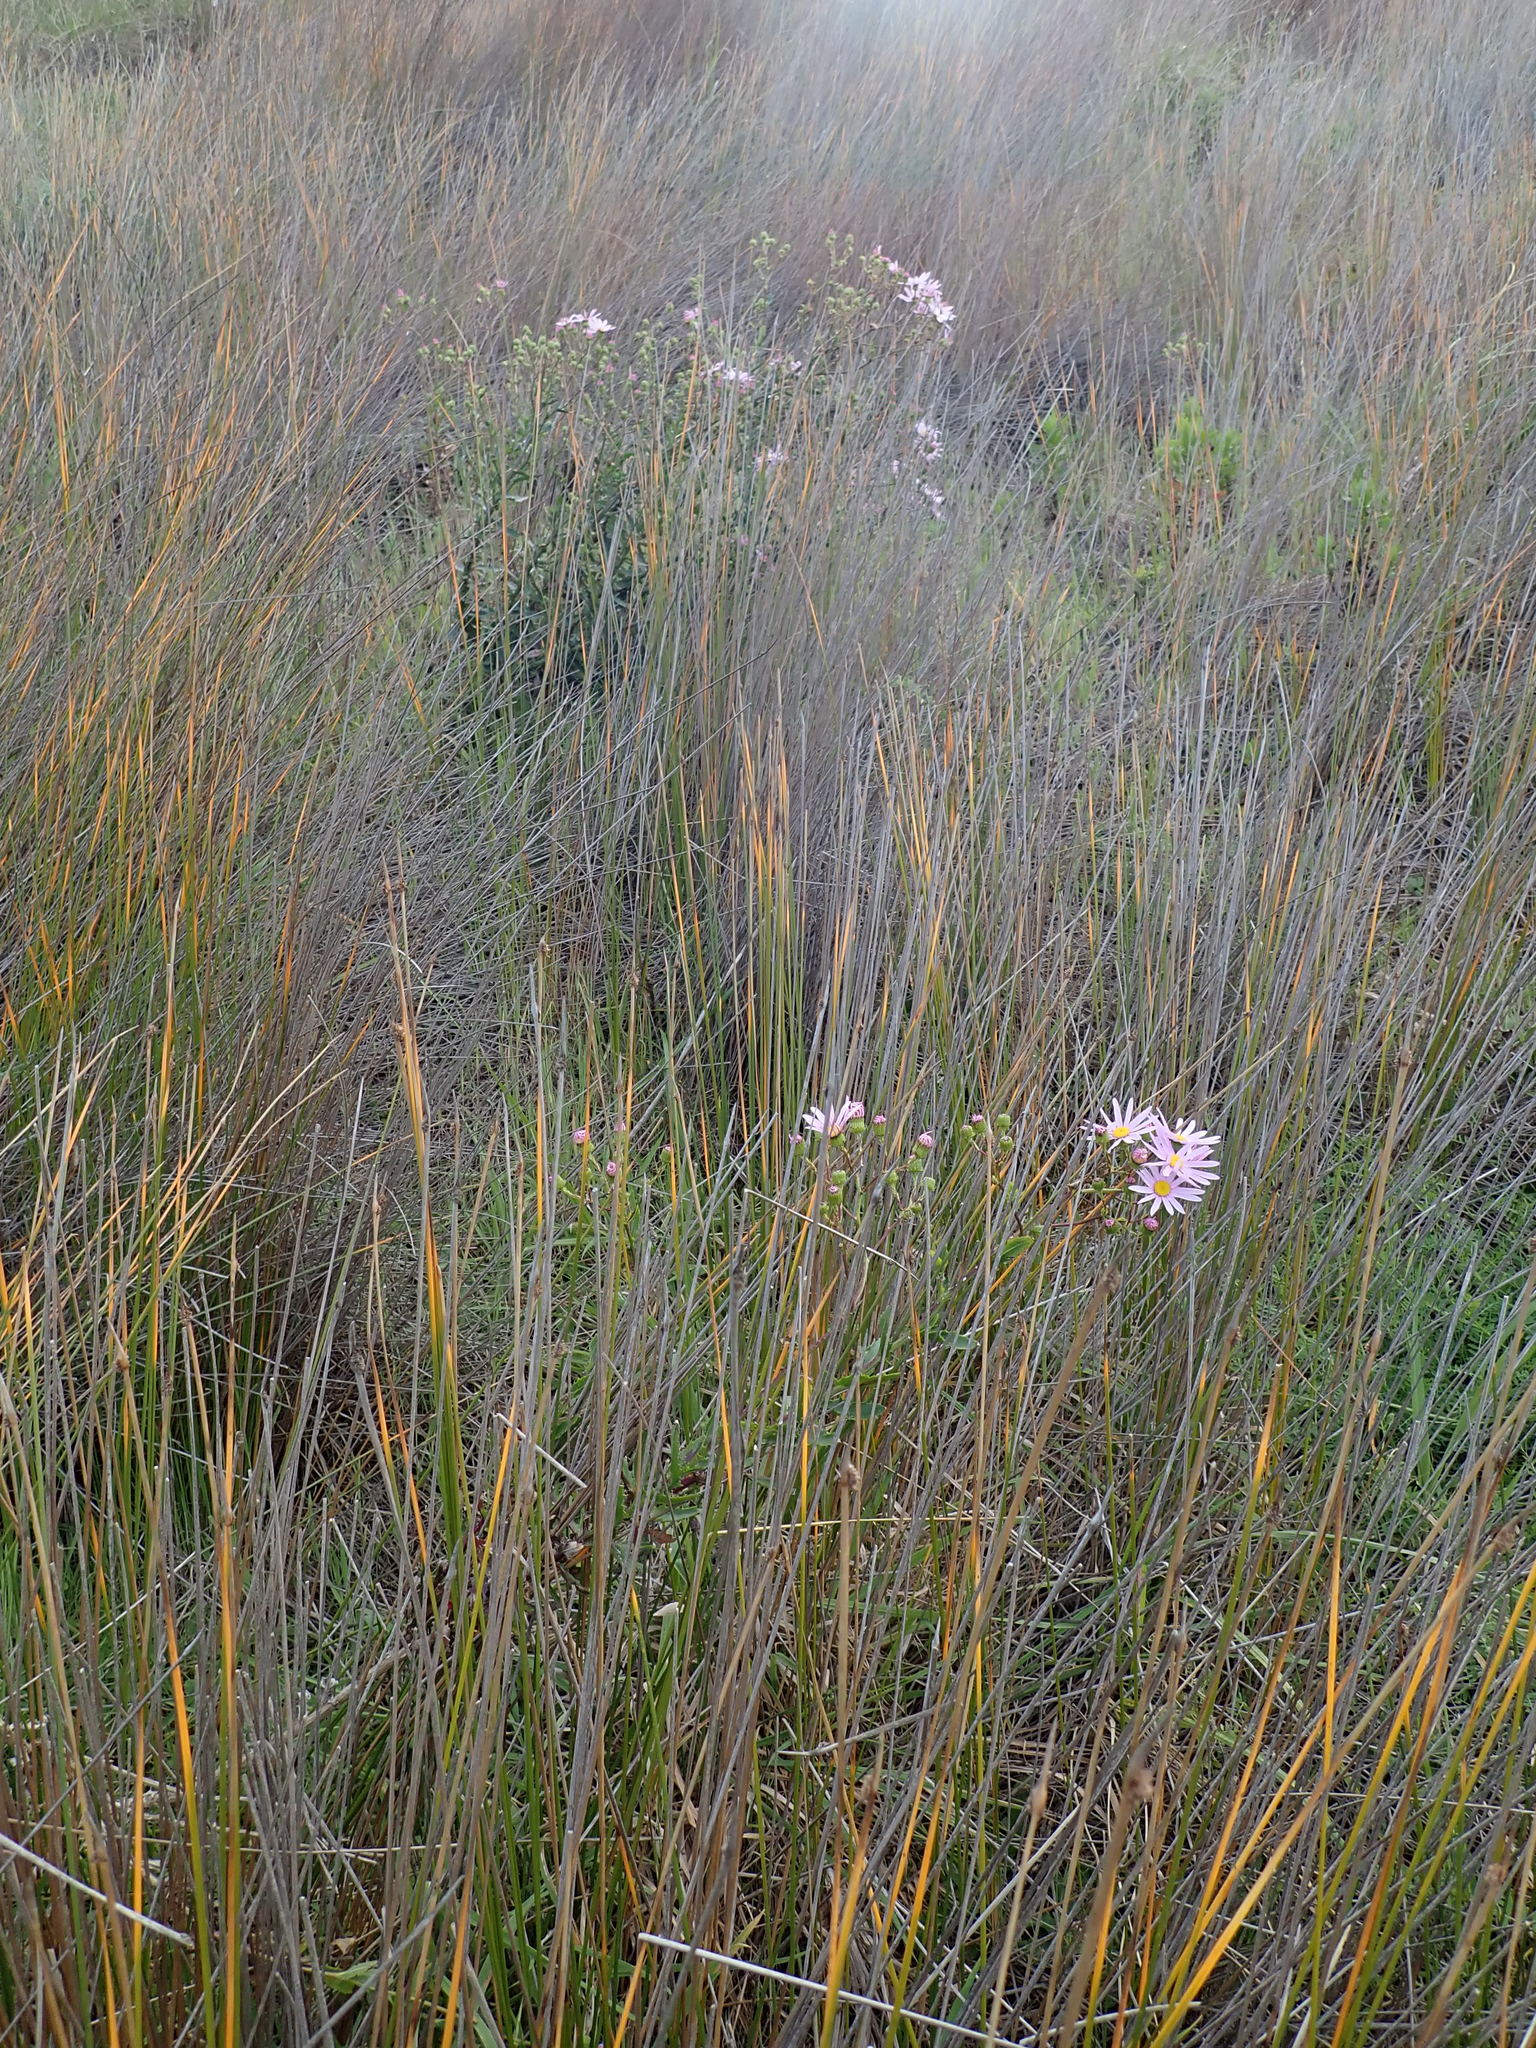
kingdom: Plantae
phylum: Tracheophyta
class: Magnoliopsida
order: Asterales
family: Asteraceae
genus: Senecio
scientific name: Senecio glastifolius
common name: Woad-leaved ragwort
